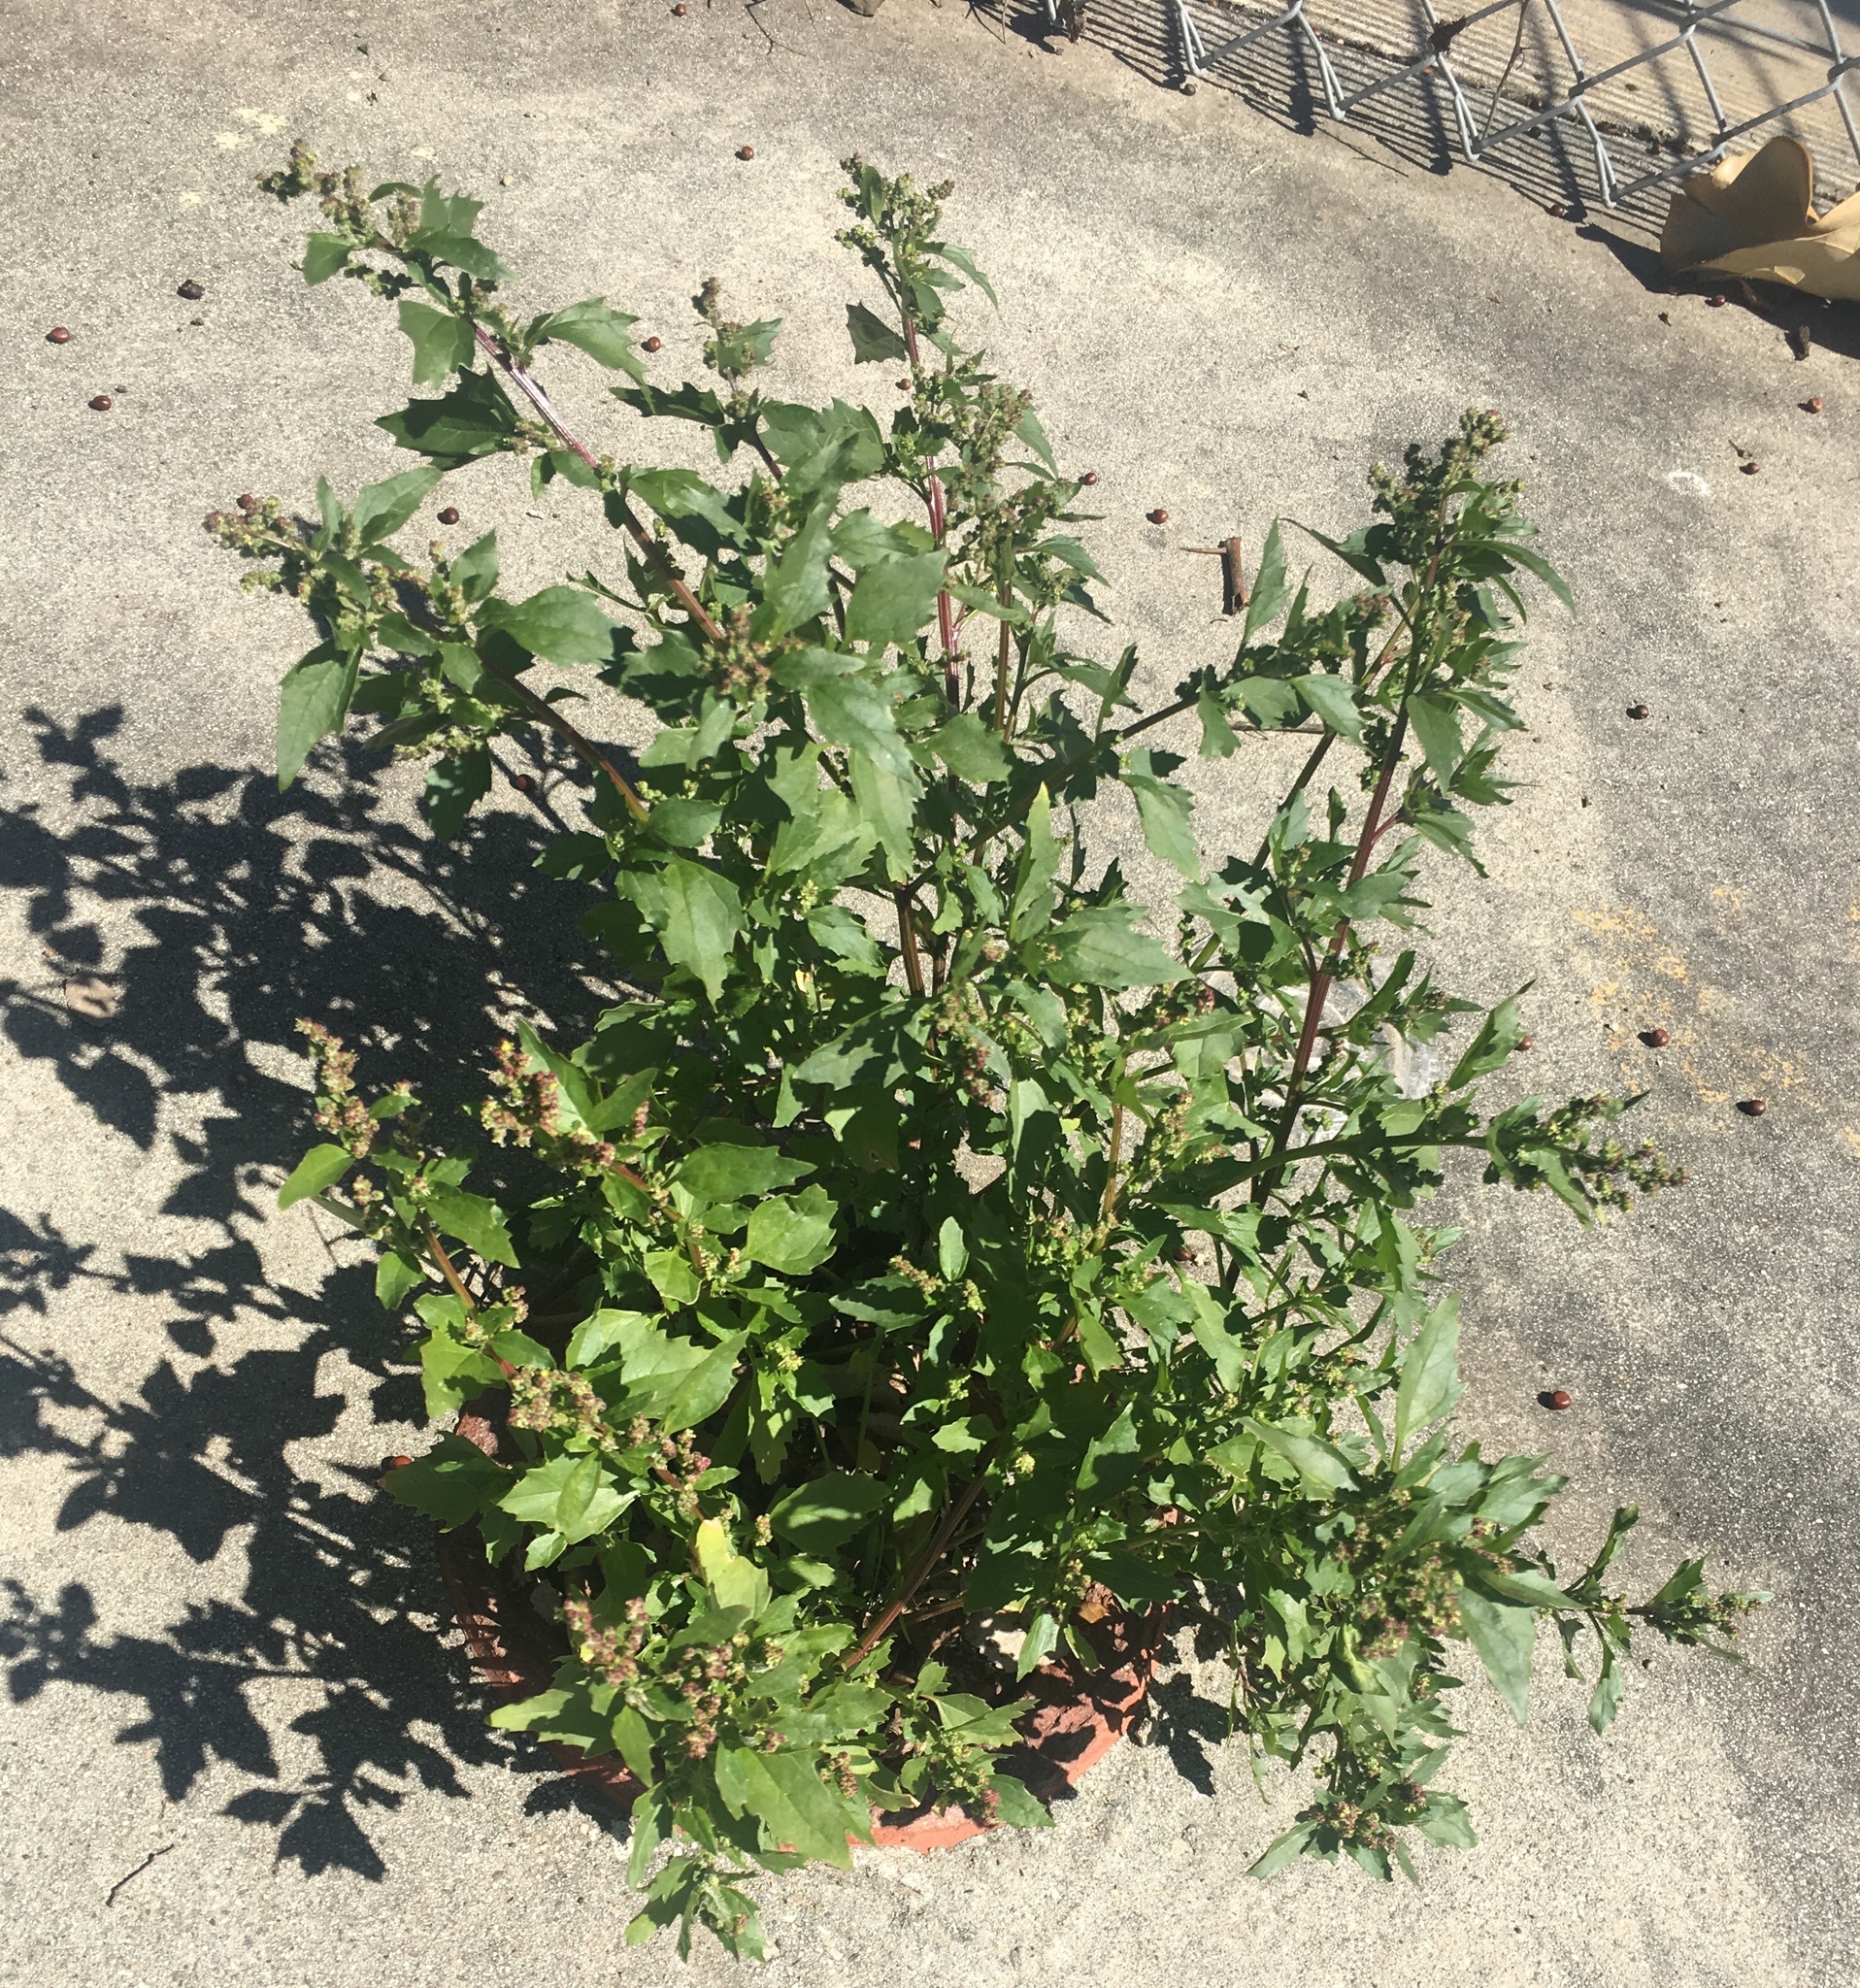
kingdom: Plantae
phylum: Tracheophyta
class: Magnoliopsida
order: Caryophyllales
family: Amaranthaceae
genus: Chenopodiastrum
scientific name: Chenopodiastrum murale
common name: Sowbane
